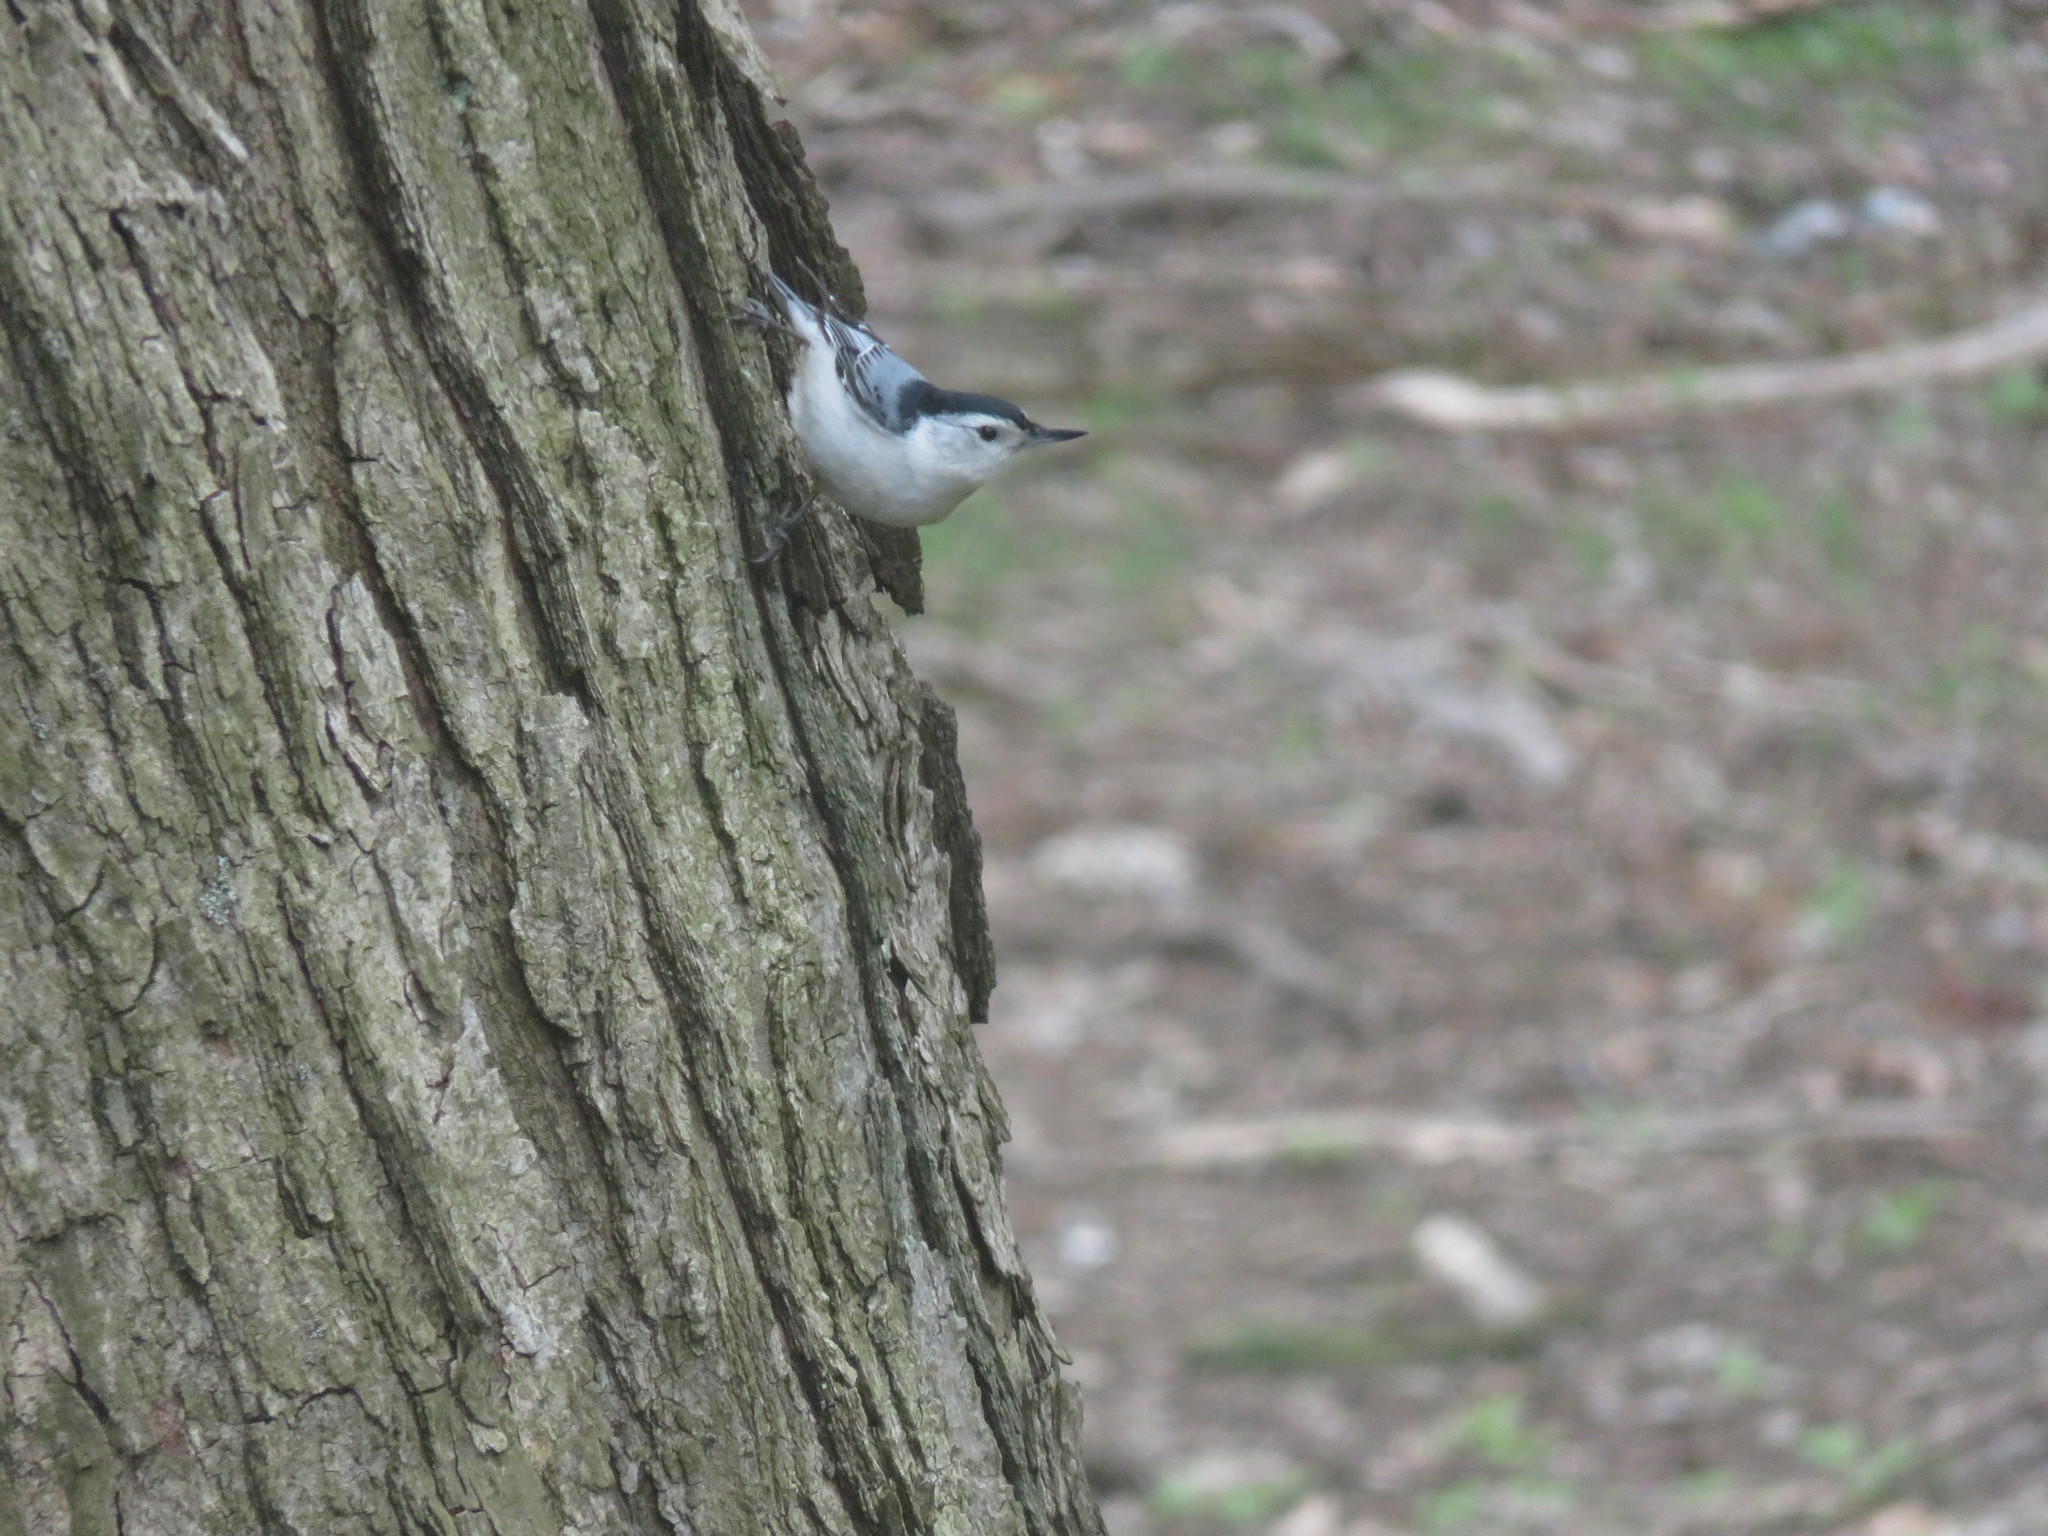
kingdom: Animalia
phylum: Chordata
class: Aves
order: Passeriformes
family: Sittidae
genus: Sitta
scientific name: Sitta carolinensis
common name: White-breasted nuthatch
